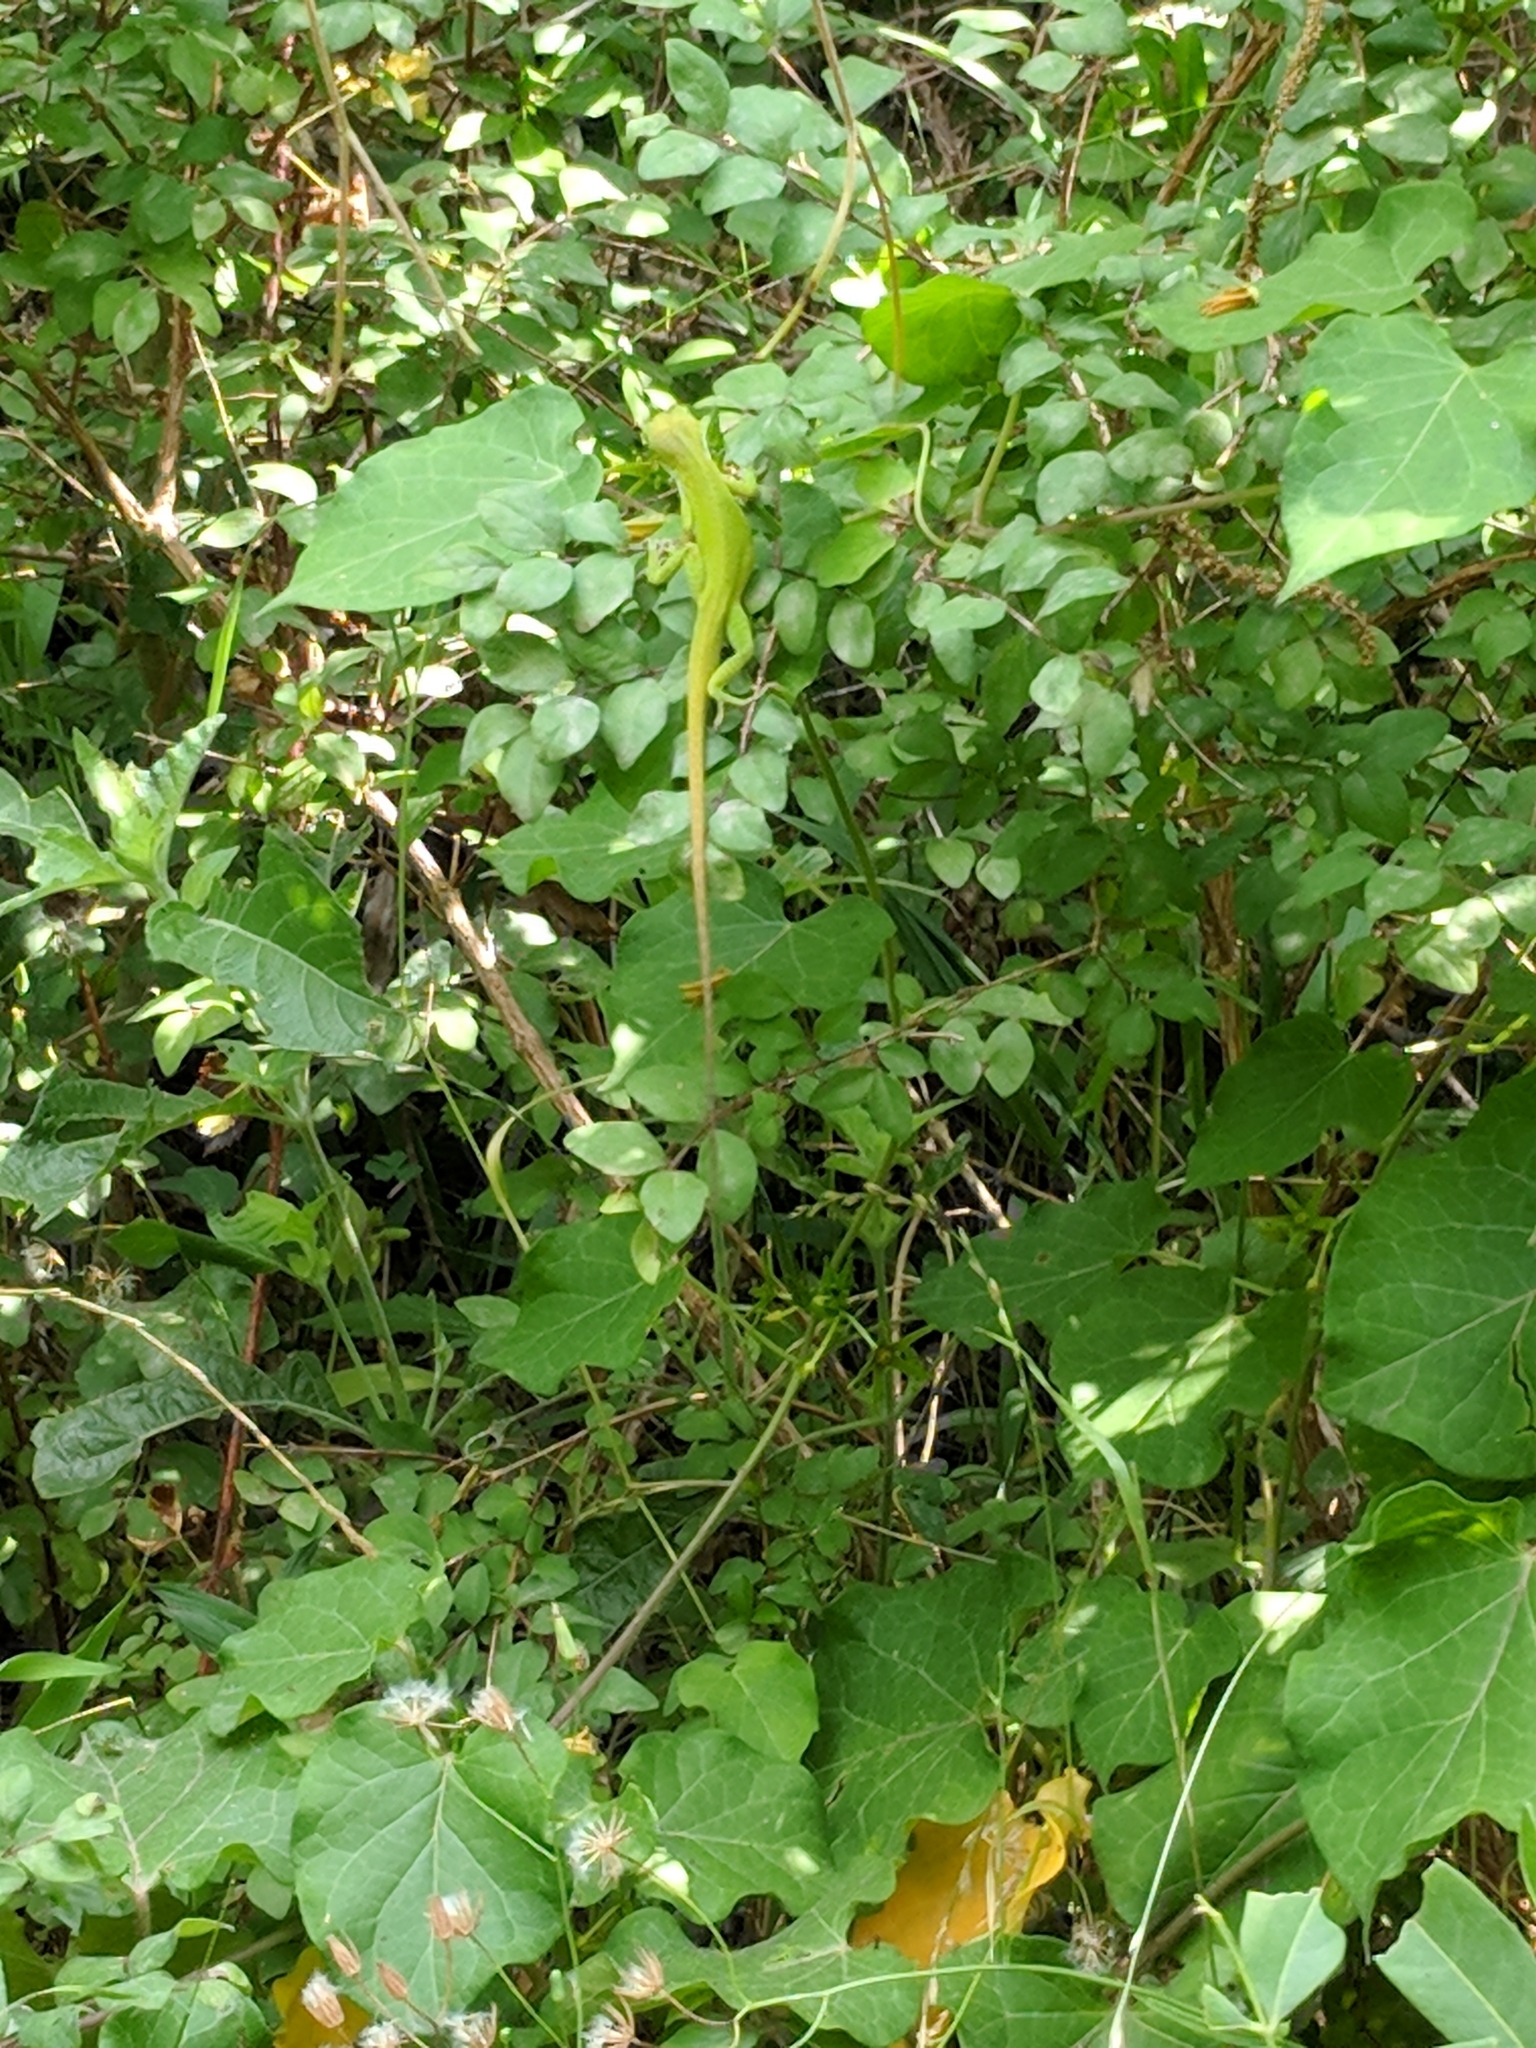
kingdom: Animalia
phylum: Chordata
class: Squamata
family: Dactyloidae
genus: Anolis
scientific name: Anolis carolinensis
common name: Green anole
